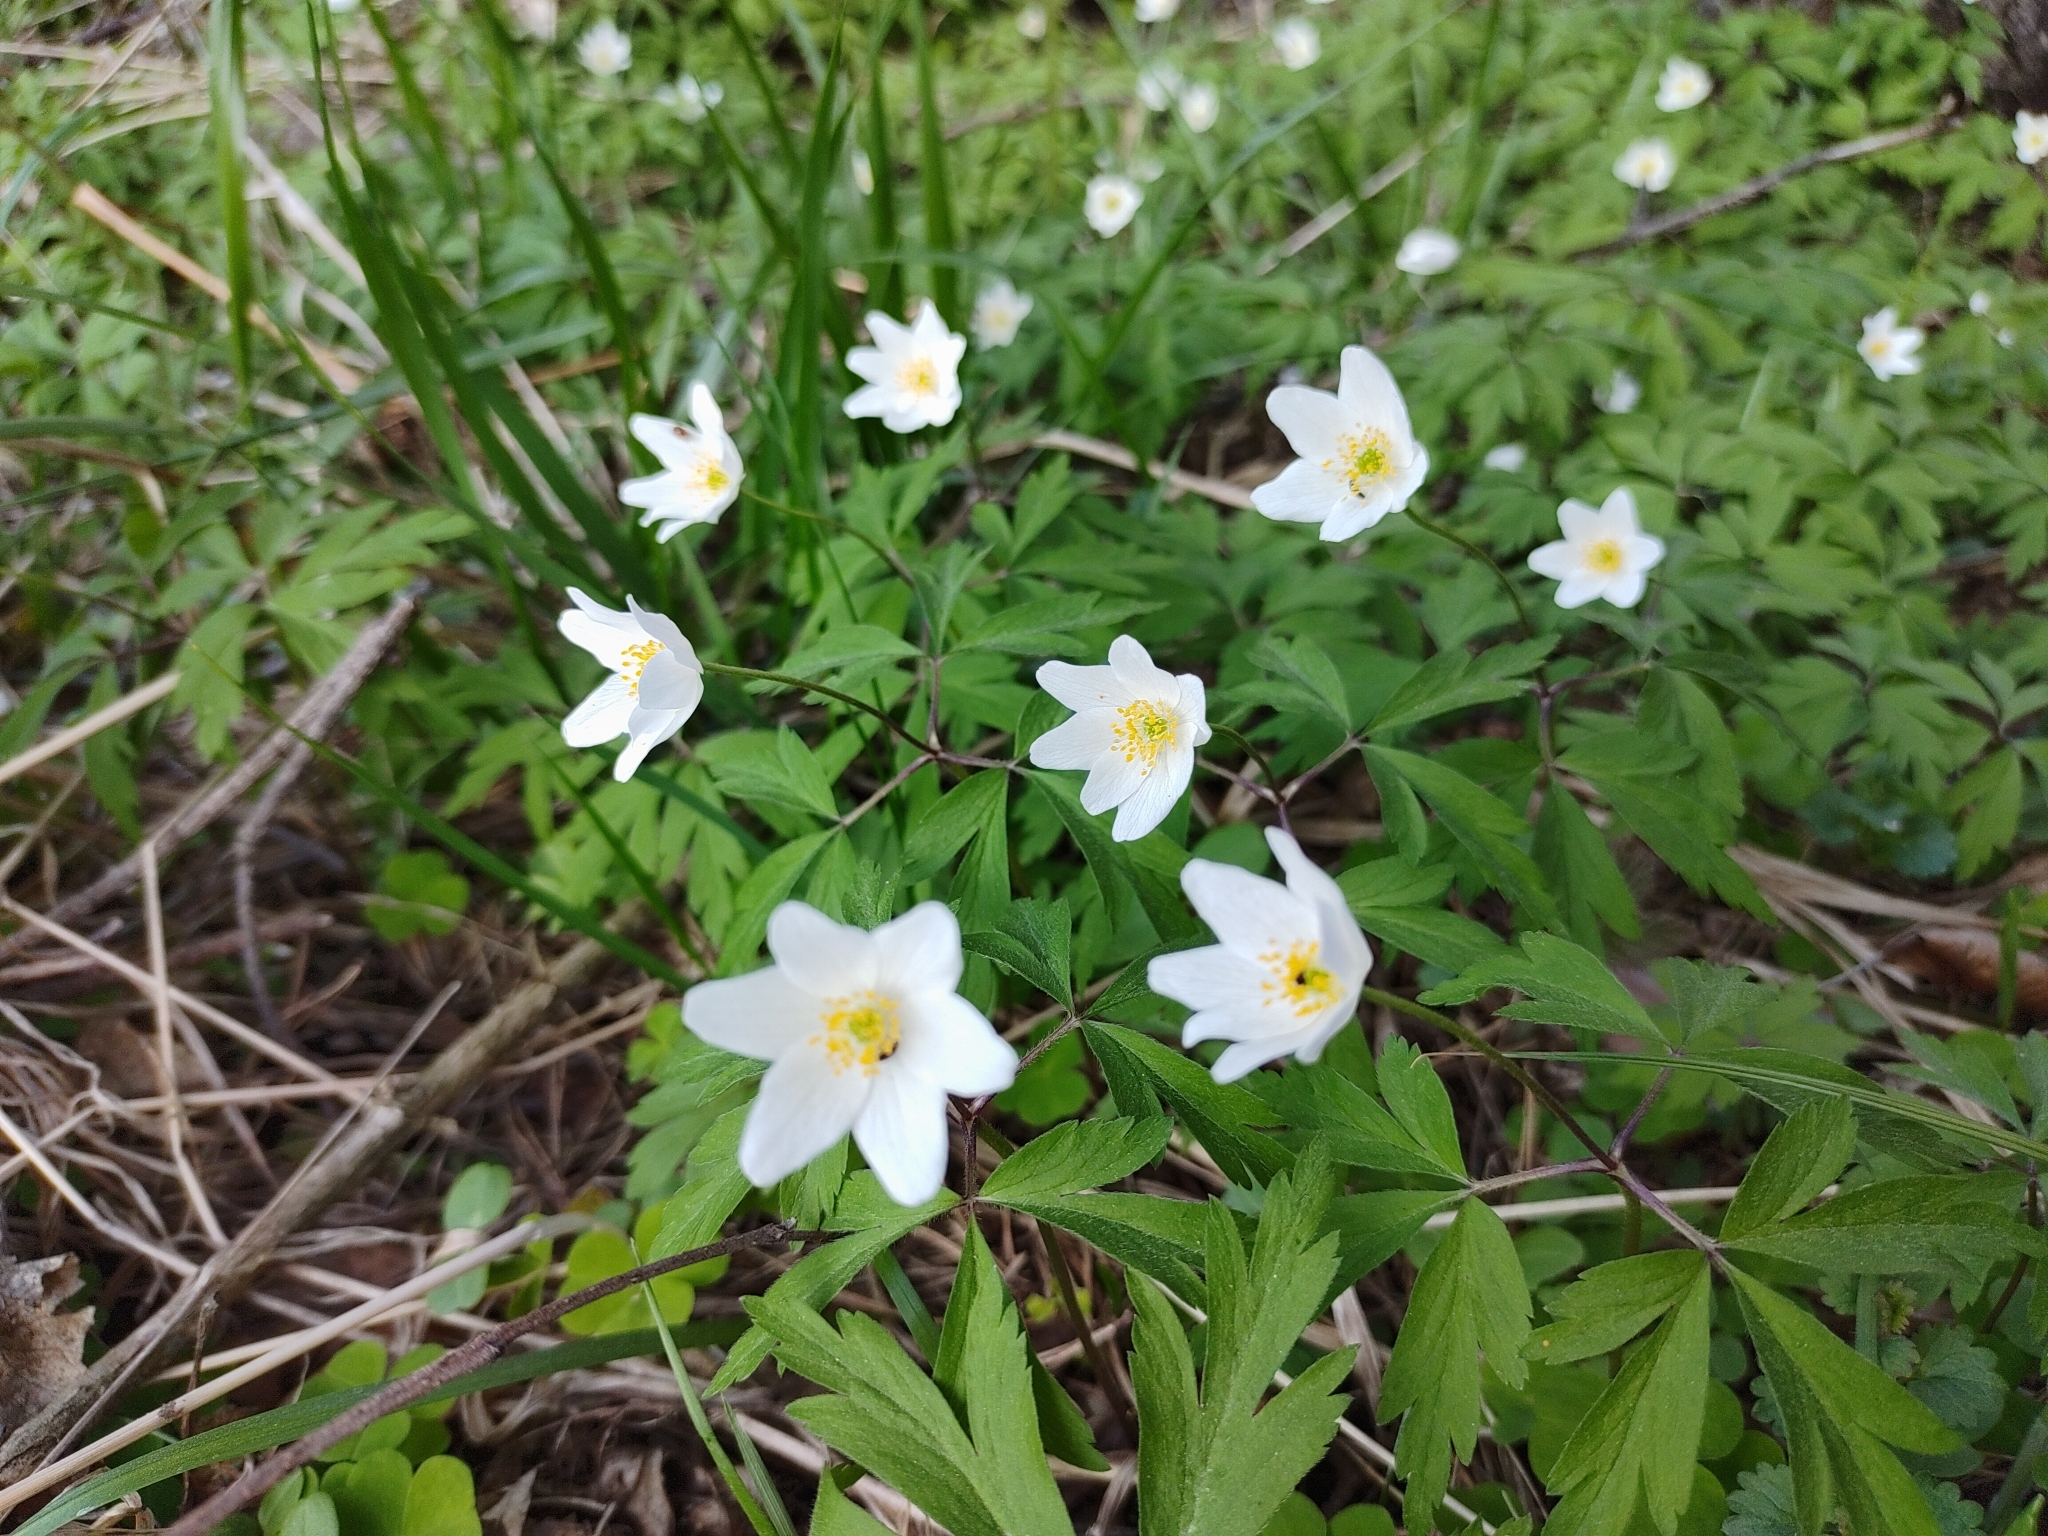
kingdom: Plantae
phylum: Tracheophyta
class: Magnoliopsida
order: Ranunculales
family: Ranunculaceae
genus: Anemone
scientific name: Anemone nemorosa
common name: Wood anemone
